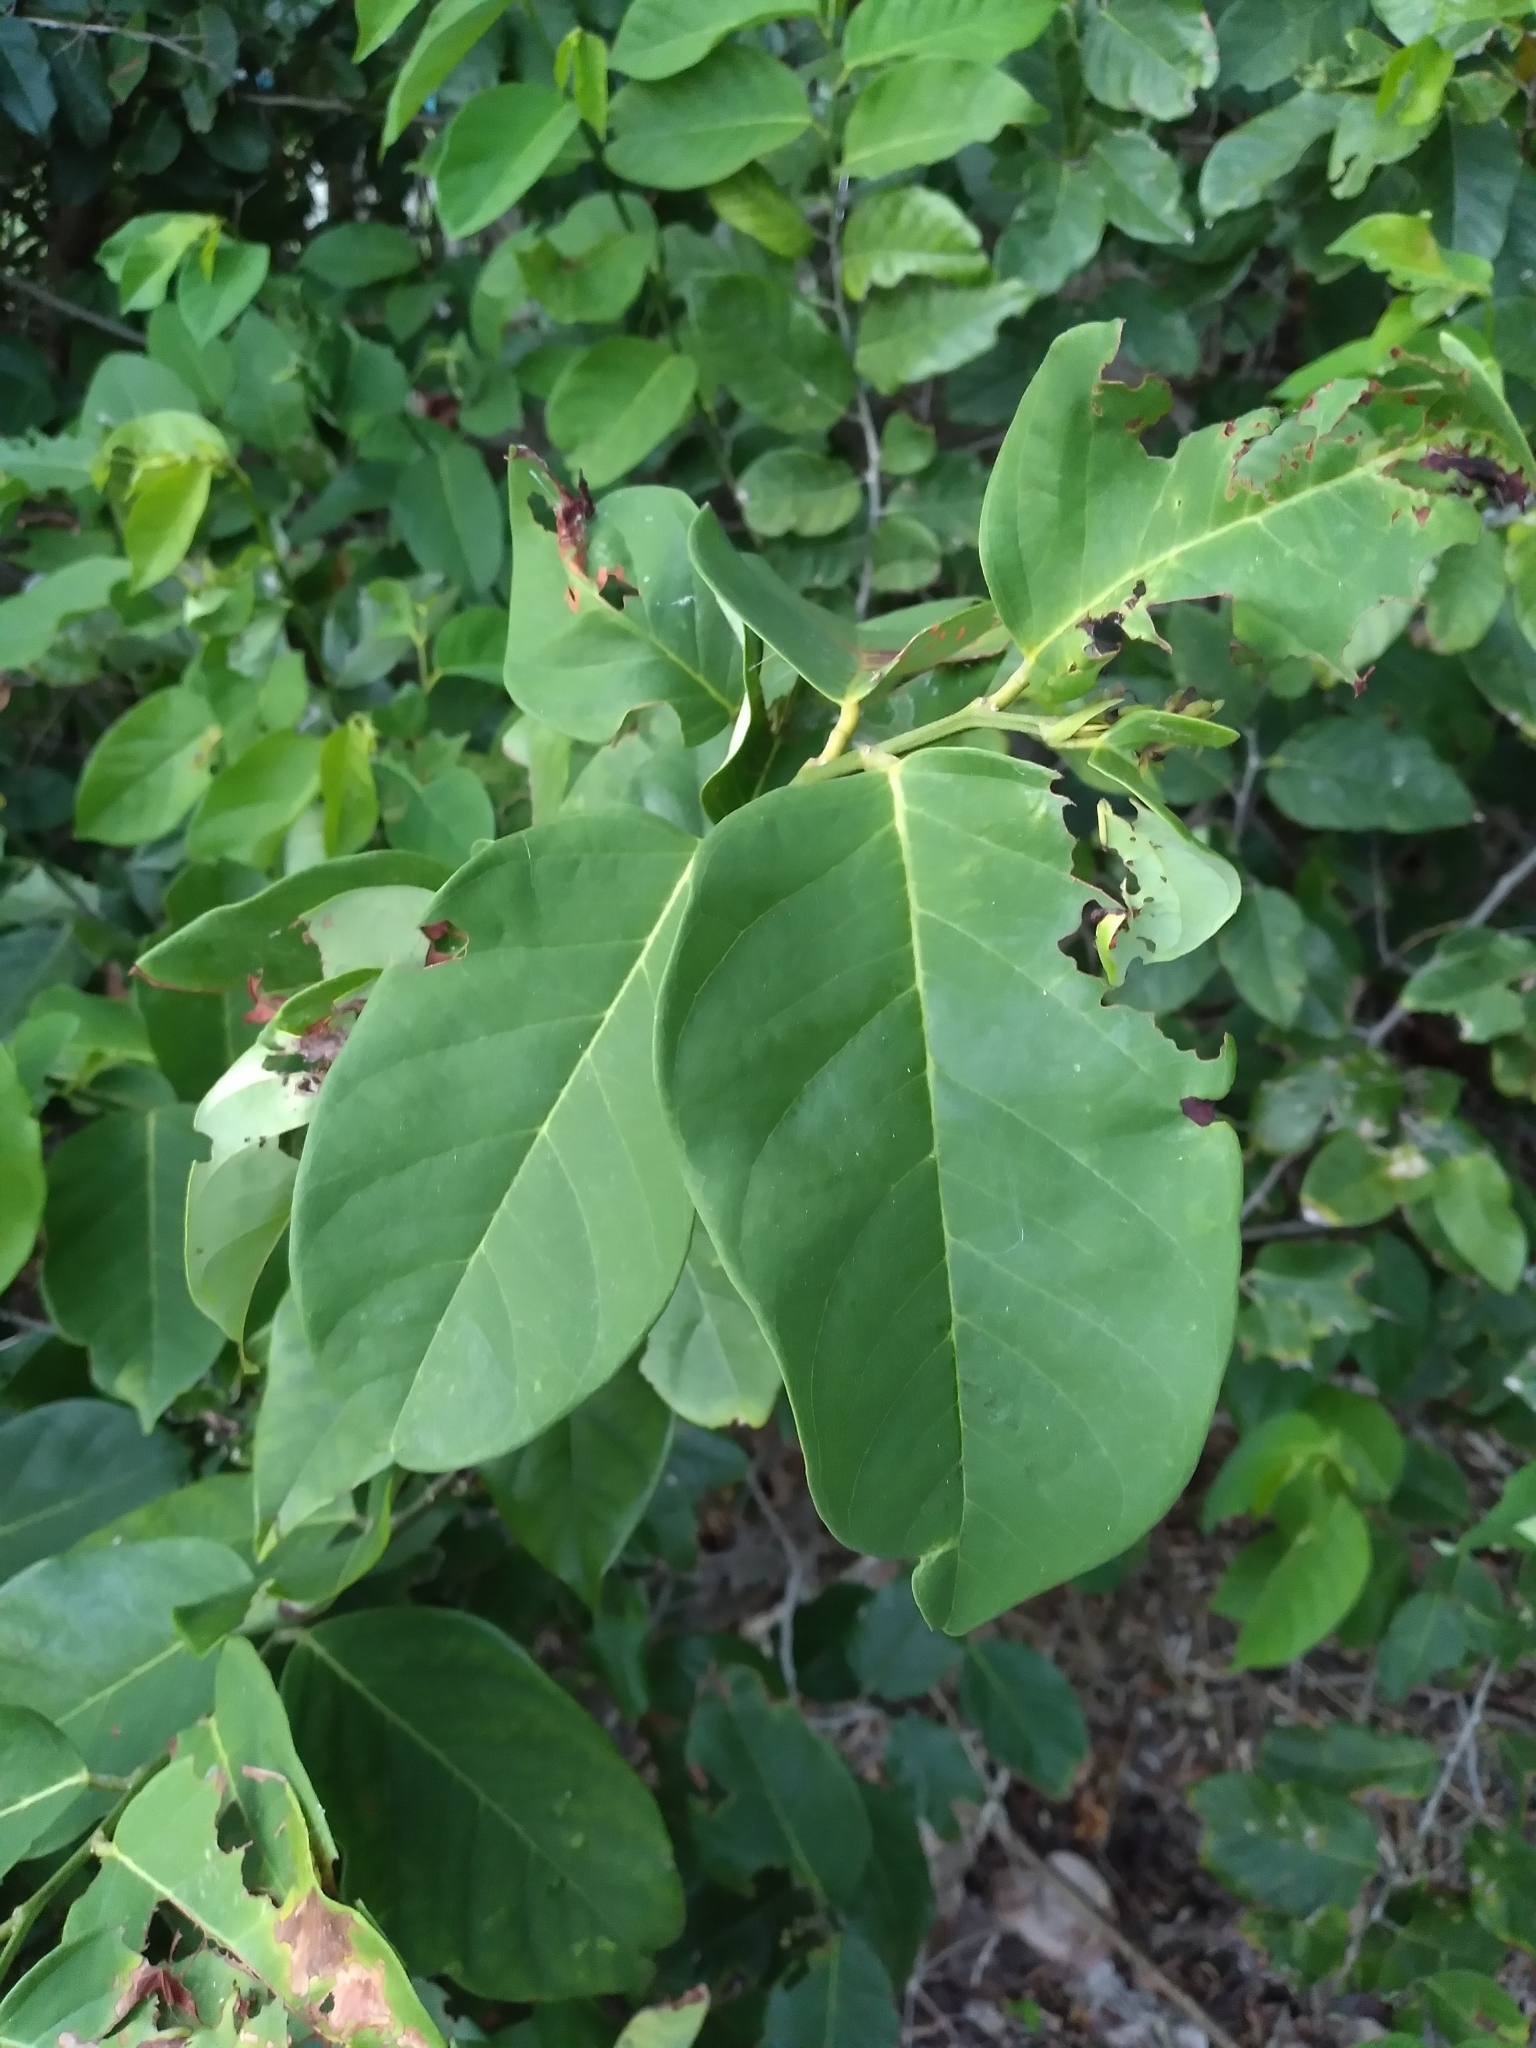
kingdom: Plantae
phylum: Tracheophyta
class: Magnoliopsida
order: Fabales
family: Fabaceae
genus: Dalbergia
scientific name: Dalbergia ecastaphyllum
